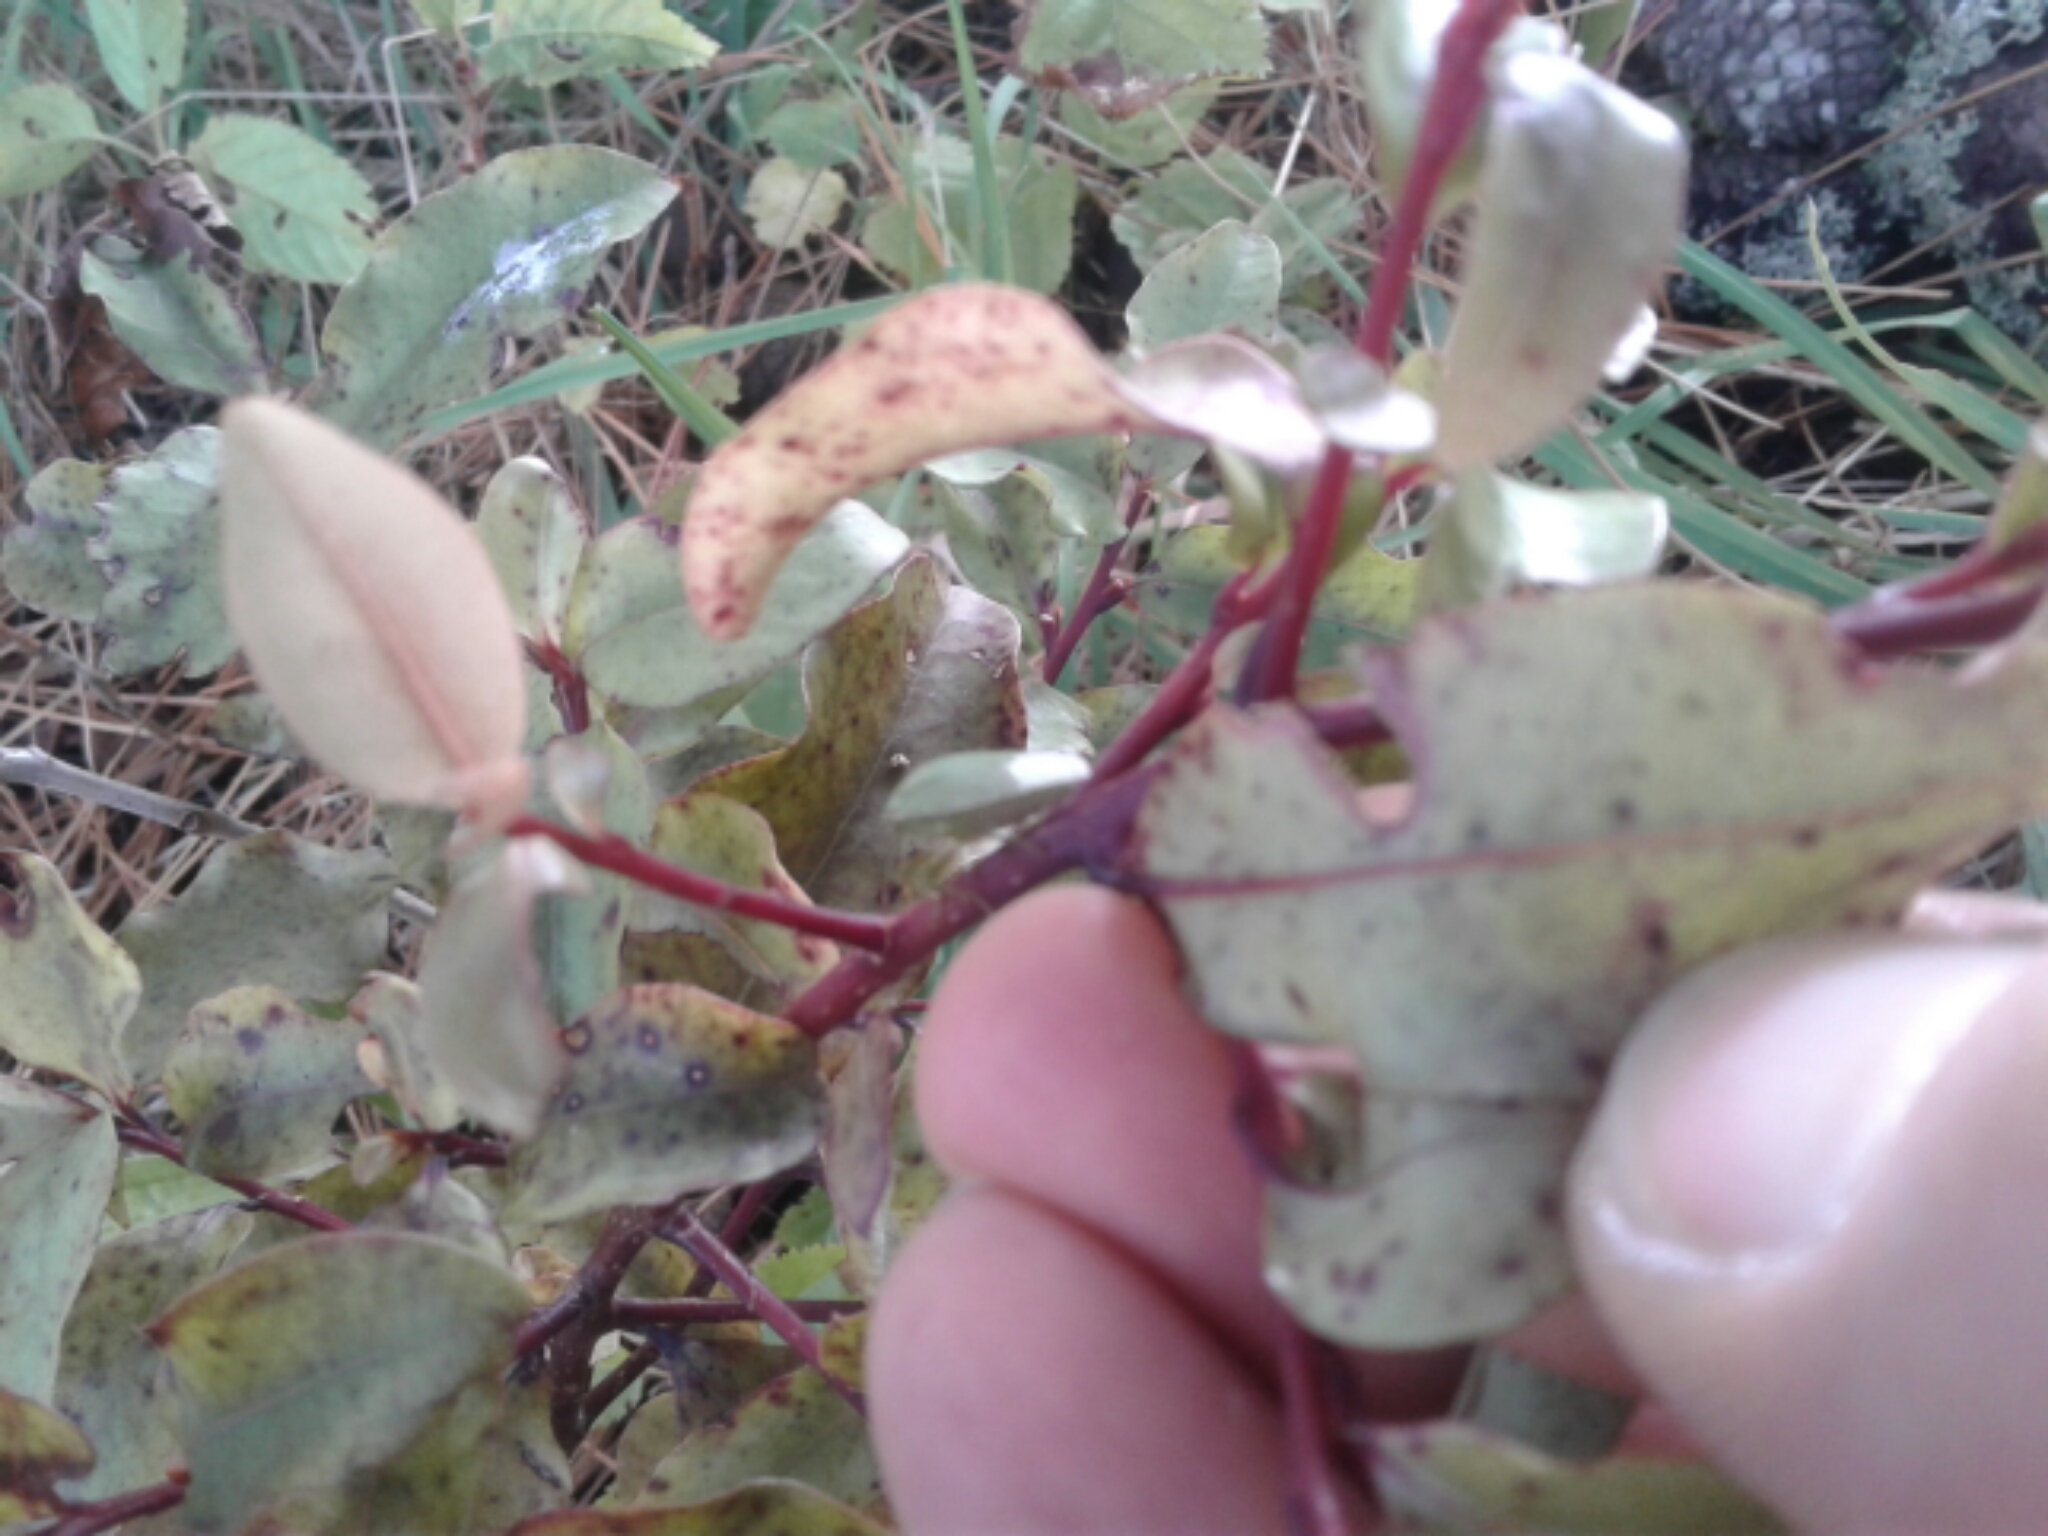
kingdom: Plantae
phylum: Tracheophyta
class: Magnoliopsida
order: Ericales
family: Primulaceae
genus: Myrsine
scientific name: Myrsine australis
